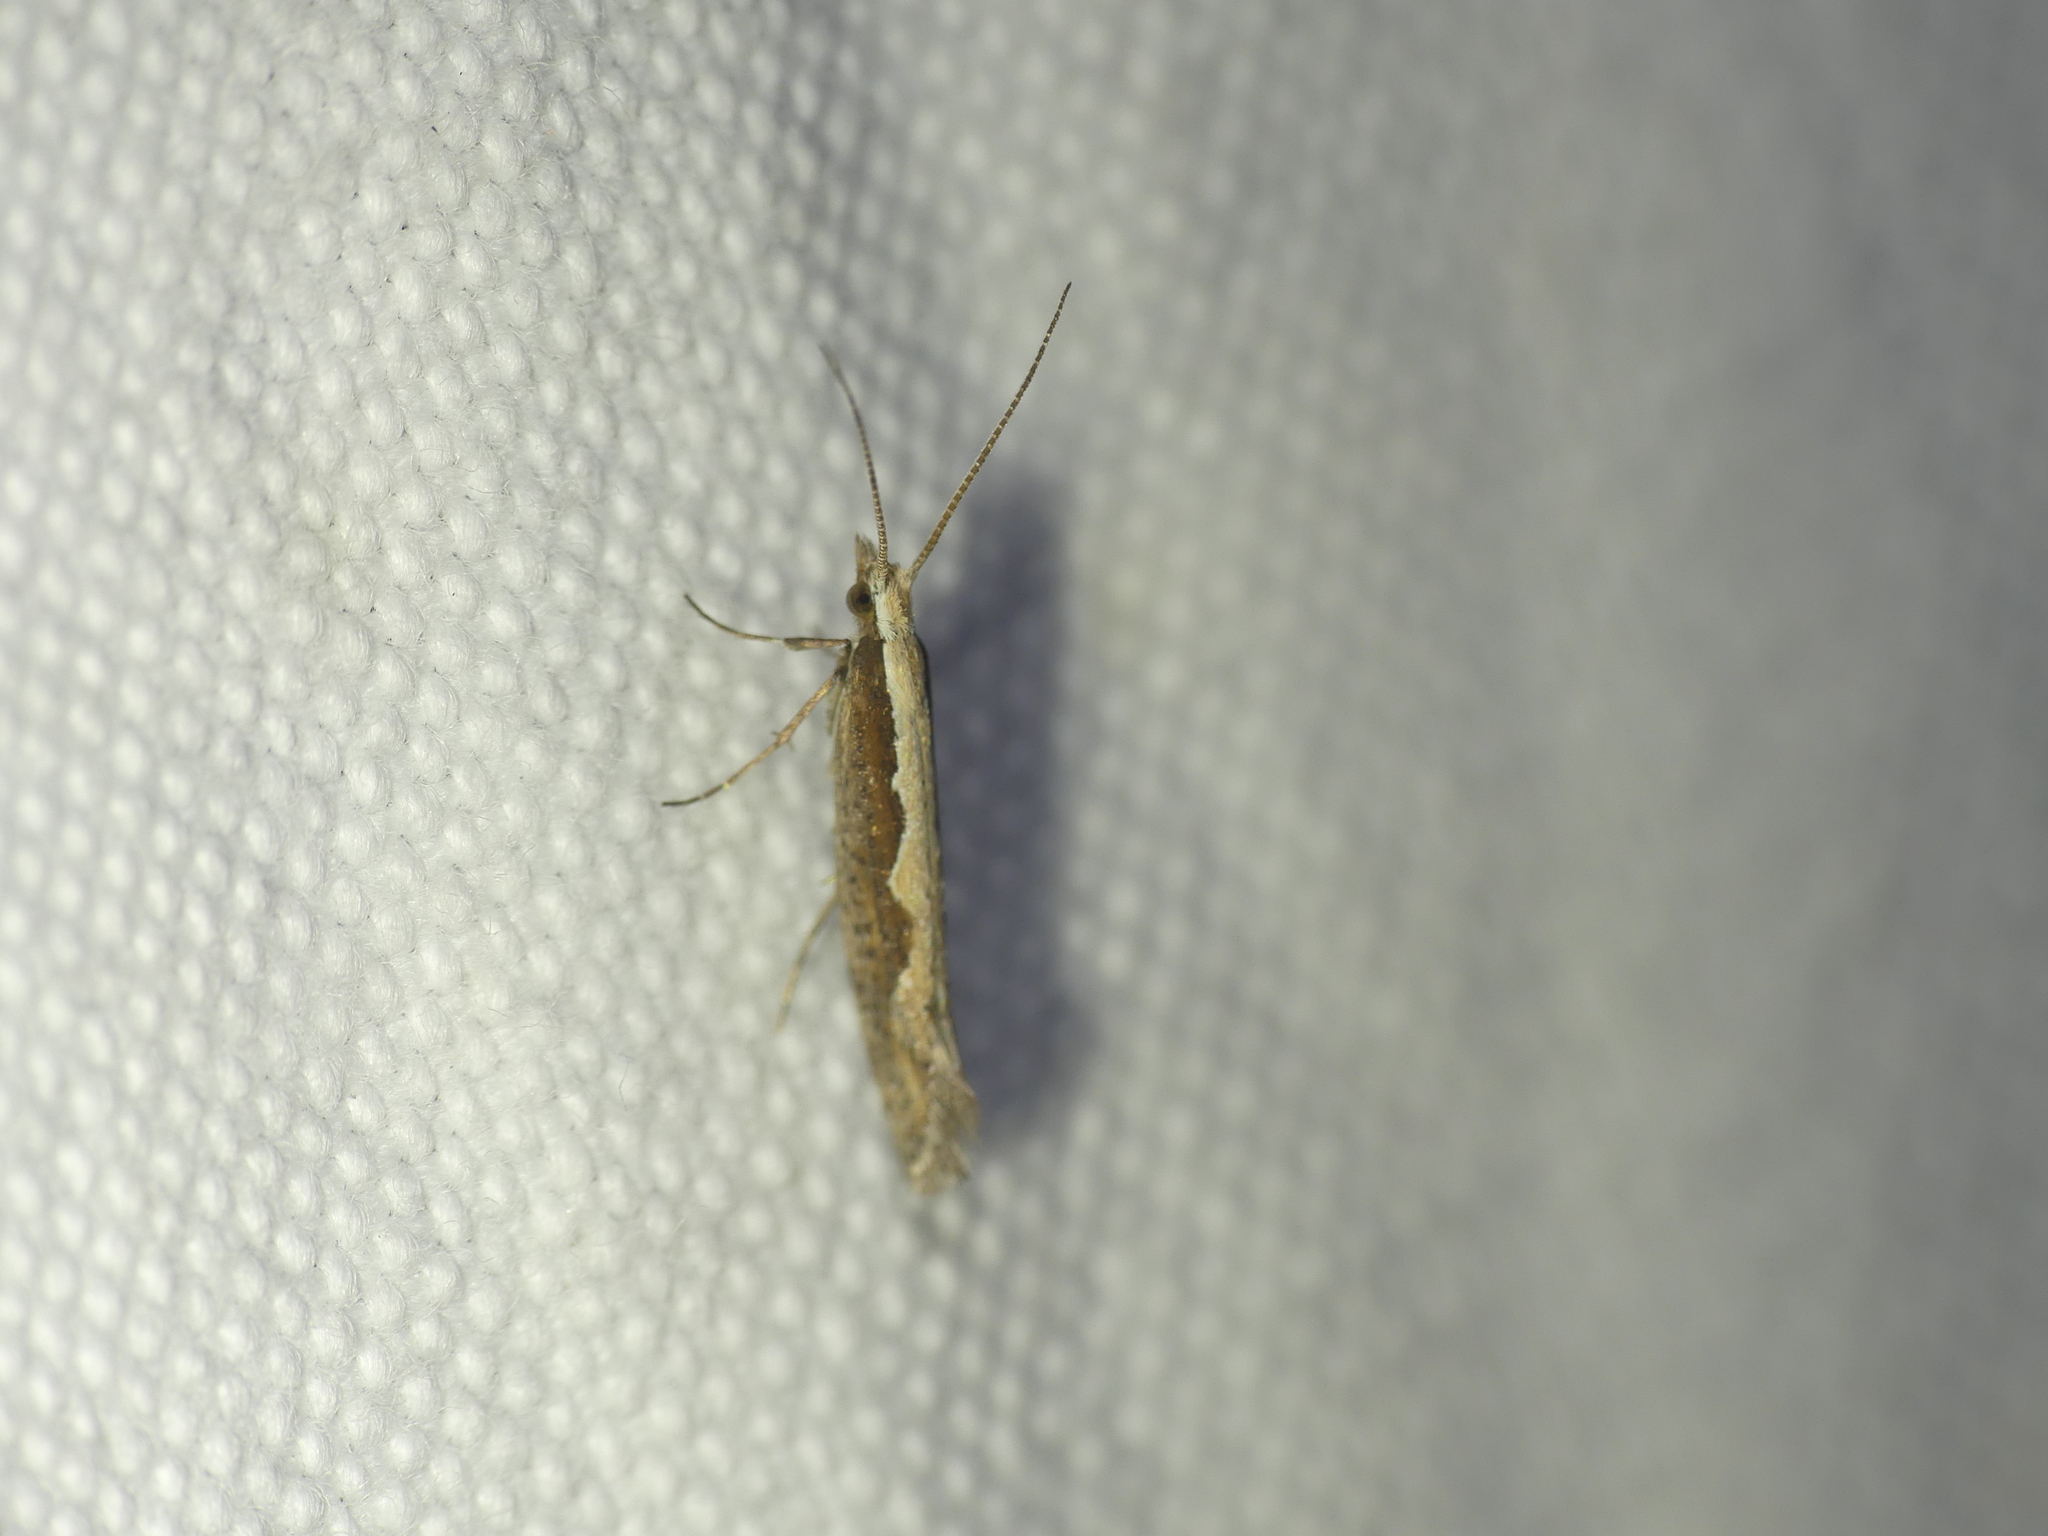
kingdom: Animalia
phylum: Arthropoda
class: Insecta
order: Lepidoptera
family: Plutellidae
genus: Plutella
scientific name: Plutella xylostella
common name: Diamond-back moth
